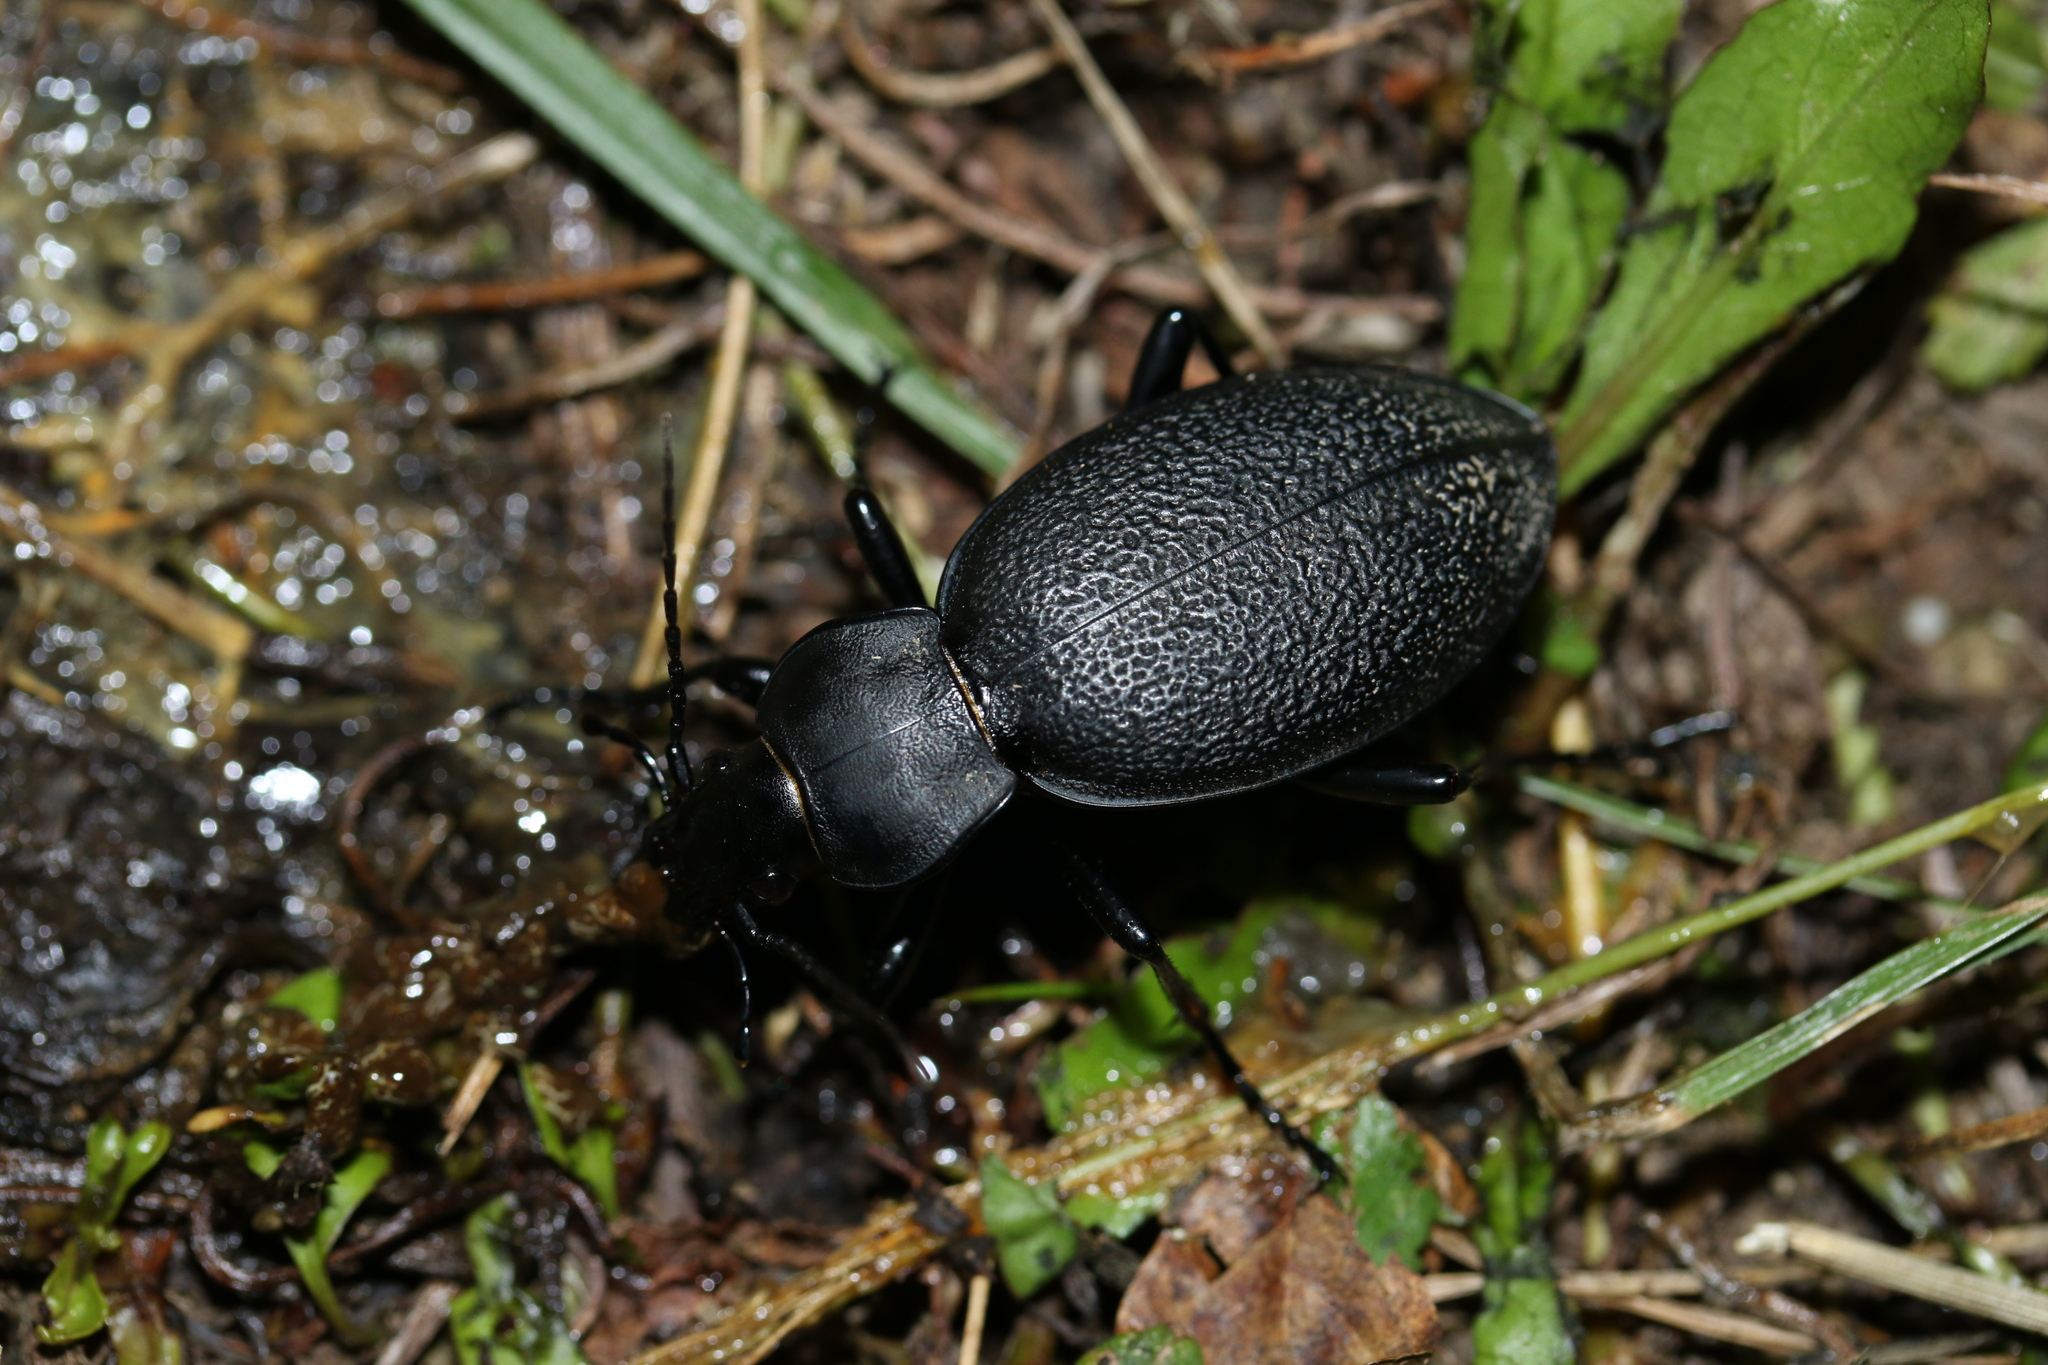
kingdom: Animalia
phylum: Arthropoda
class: Insecta
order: Coleoptera
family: Carabidae
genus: Carabus
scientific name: Carabus coriaceus
